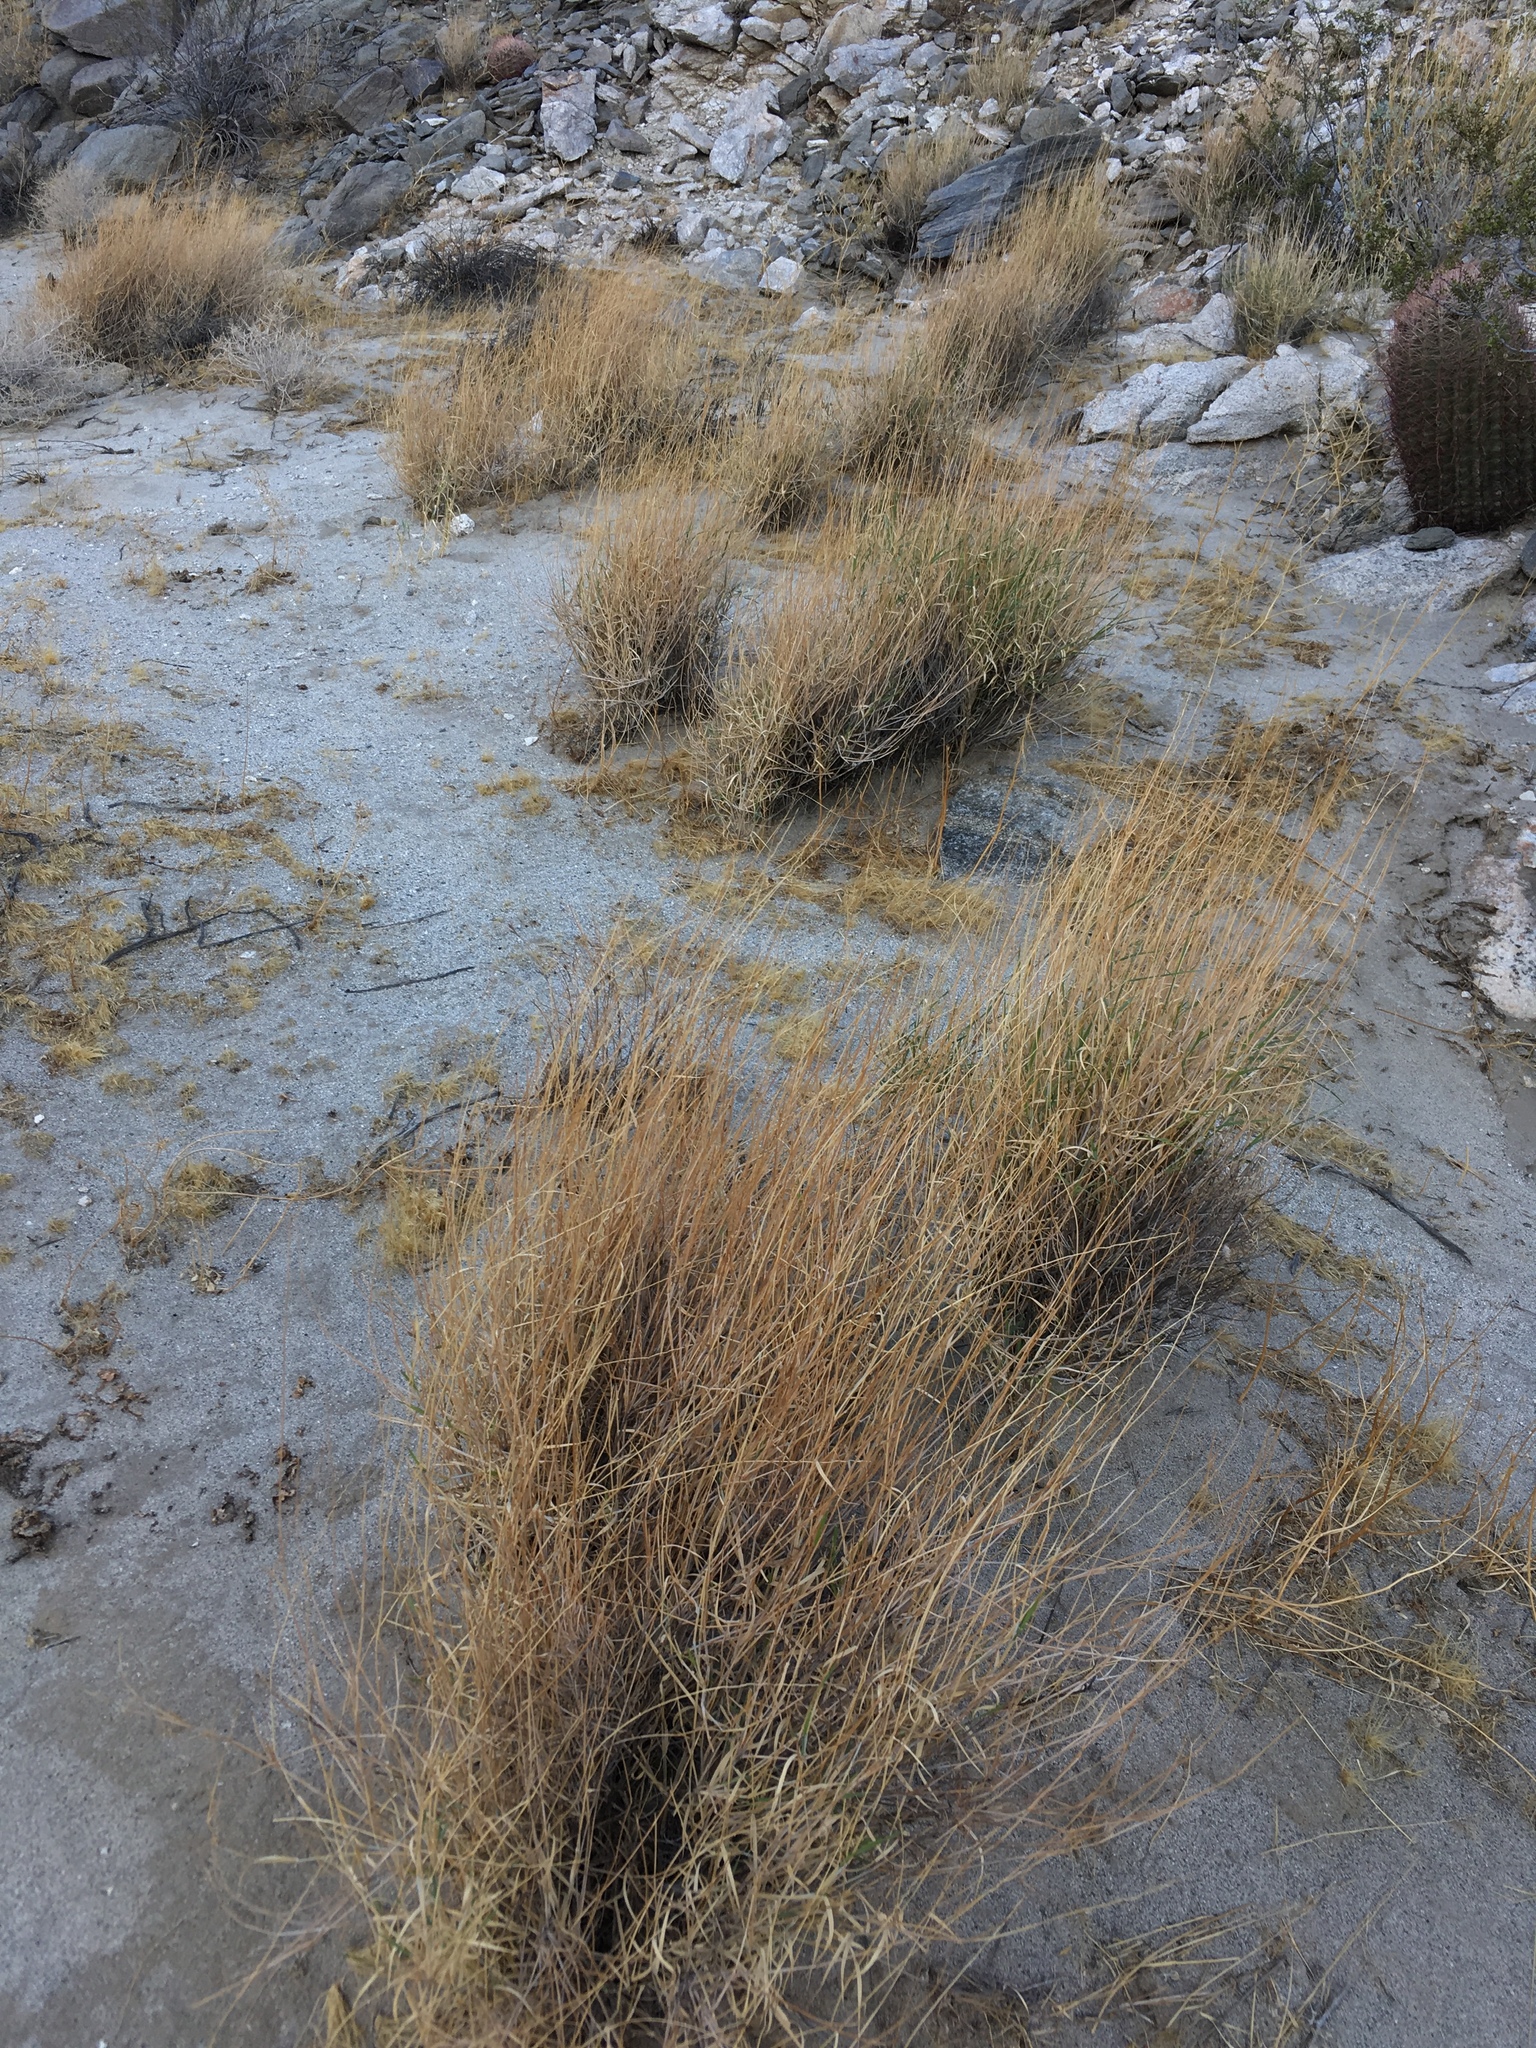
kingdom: Plantae
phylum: Tracheophyta
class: Liliopsida
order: Poales
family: Poaceae
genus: Hilaria
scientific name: Hilaria rigida
